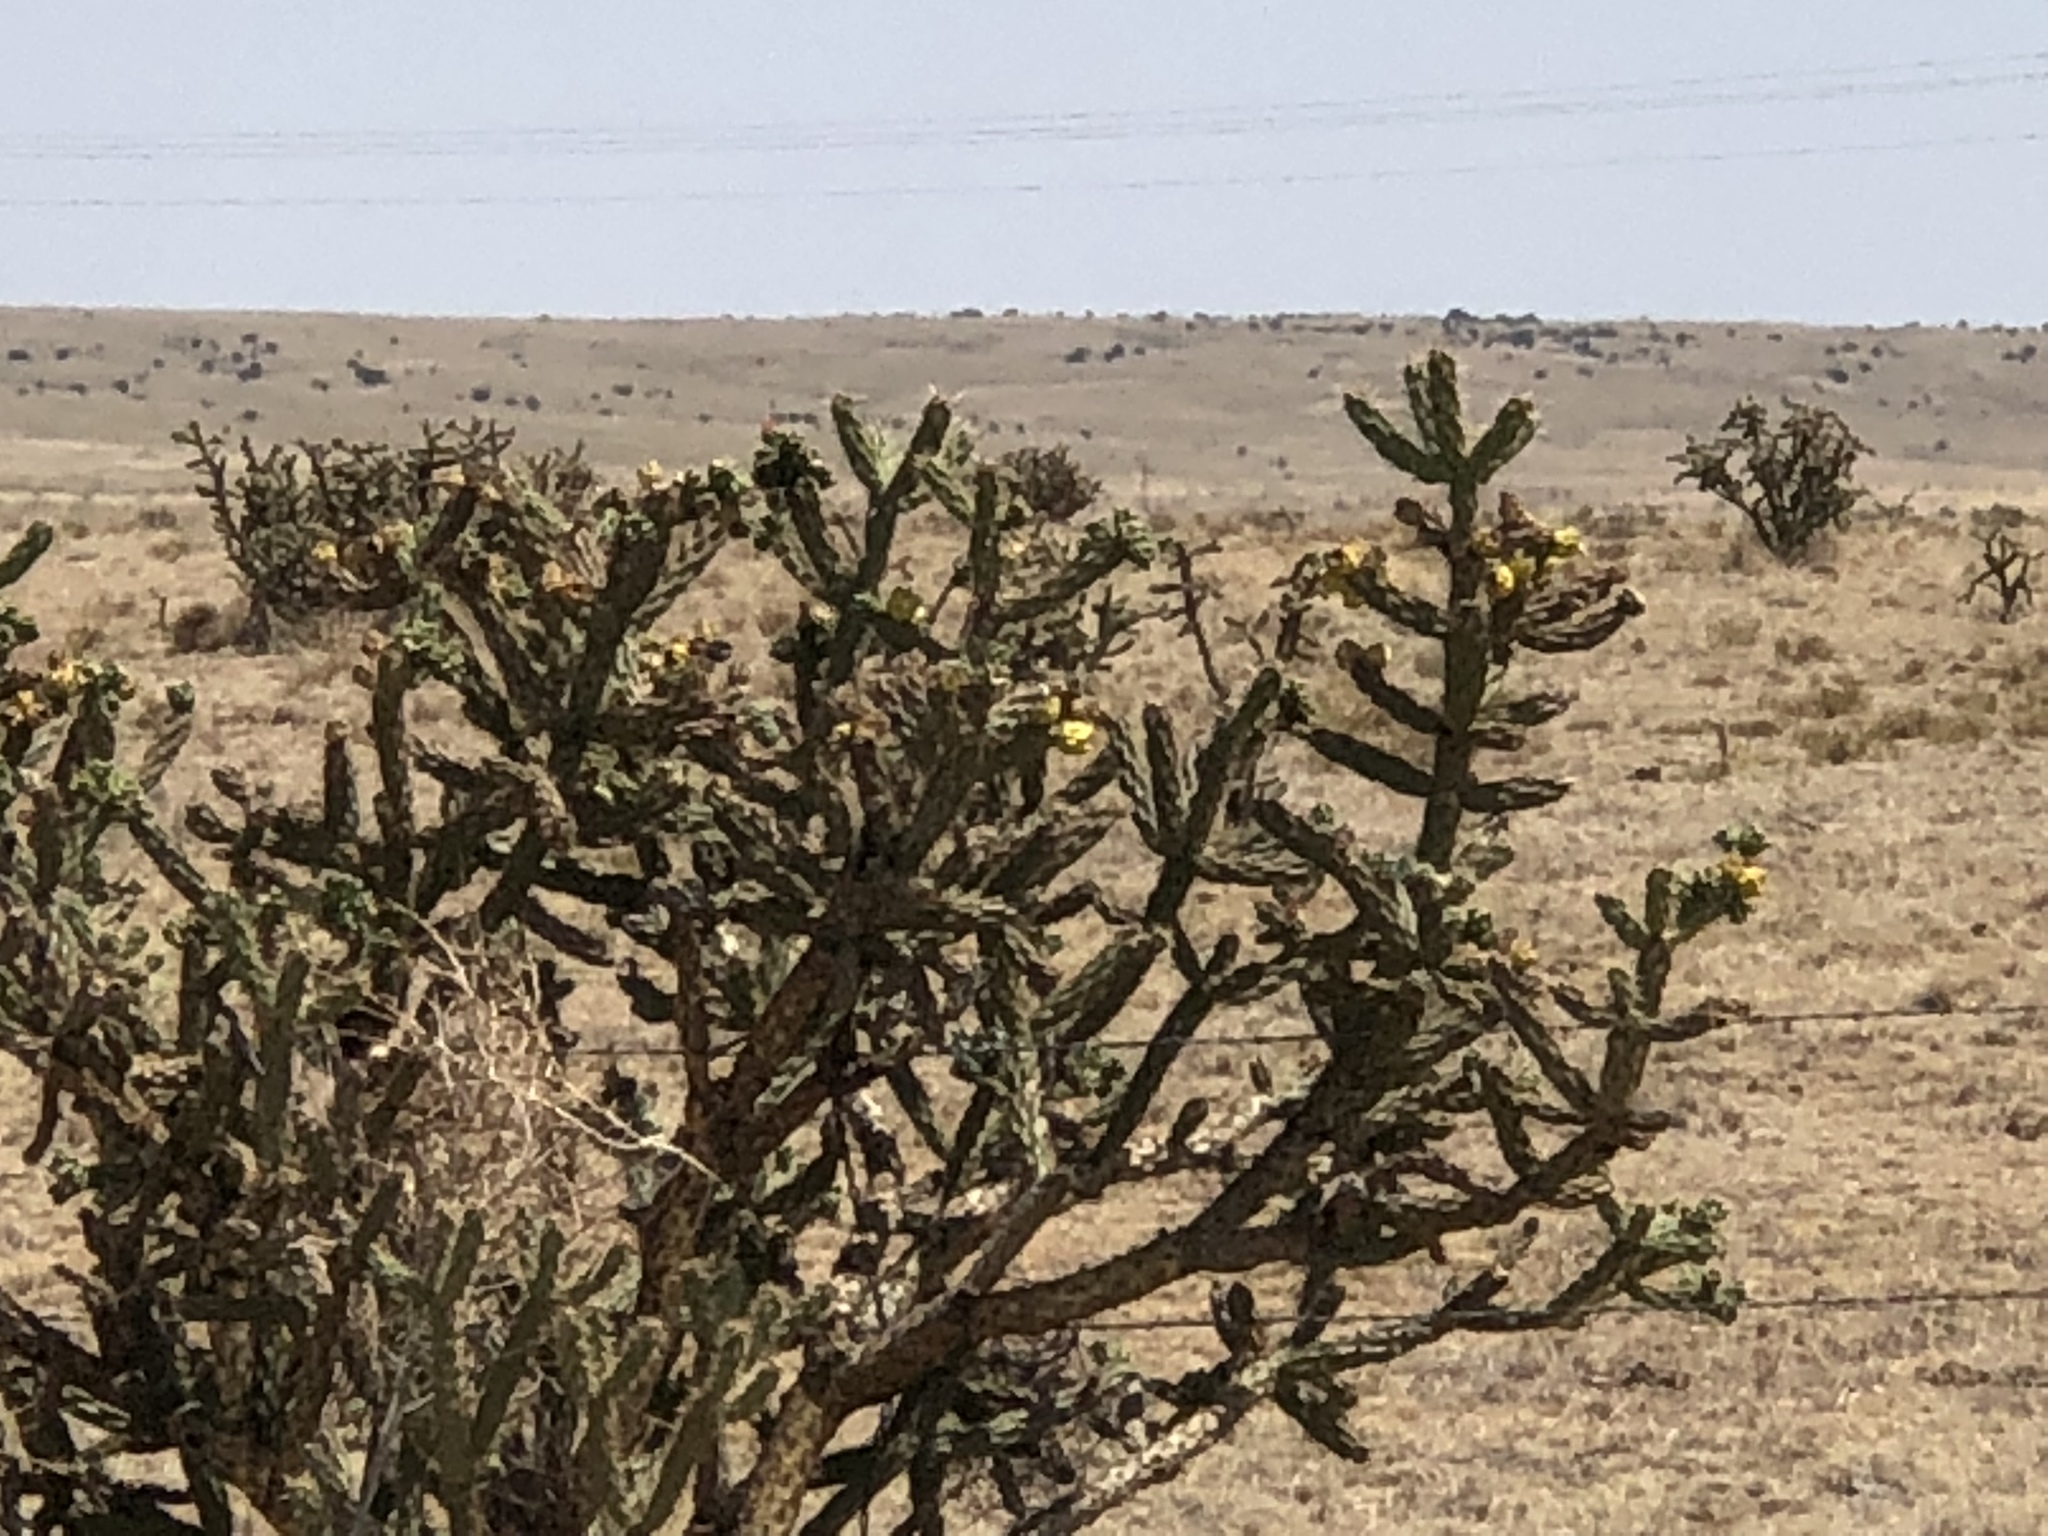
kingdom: Plantae
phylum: Tracheophyta
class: Magnoliopsida
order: Caryophyllales
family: Cactaceae
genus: Cylindropuntia
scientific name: Cylindropuntia imbricata
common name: Candelabrum cactus
